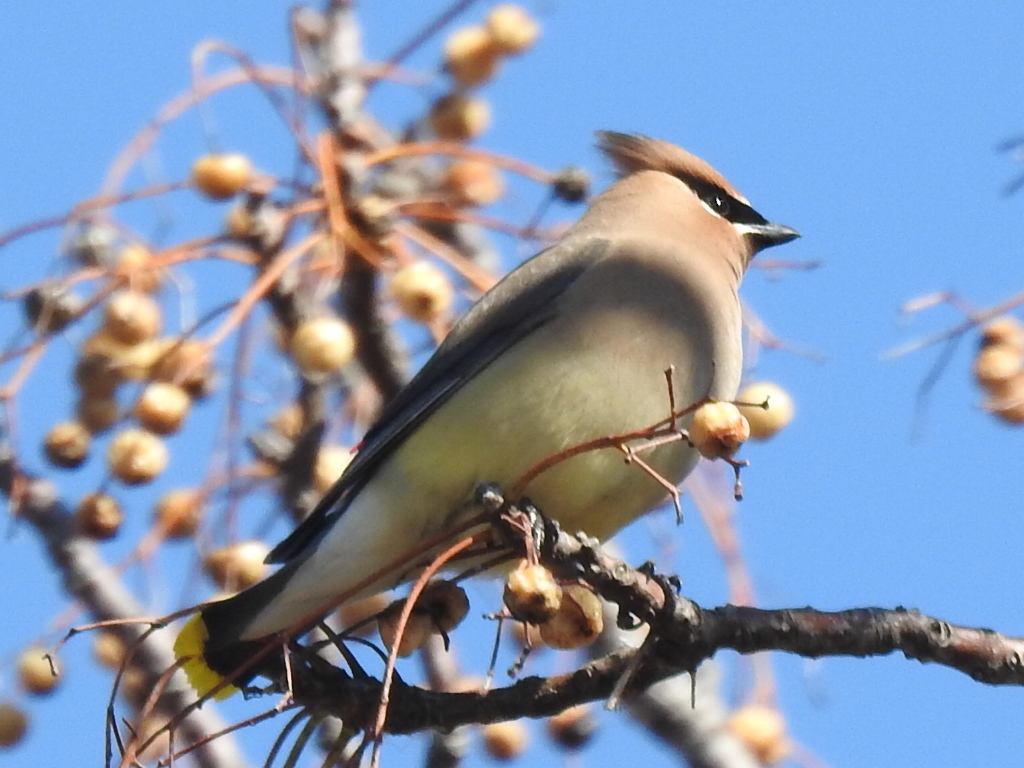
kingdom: Animalia
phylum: Chordata
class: Aves
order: Passeriformes
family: Bombycillidae
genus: Bombycilla
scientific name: Bombycilla cedrorum
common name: Cedar waxwing
